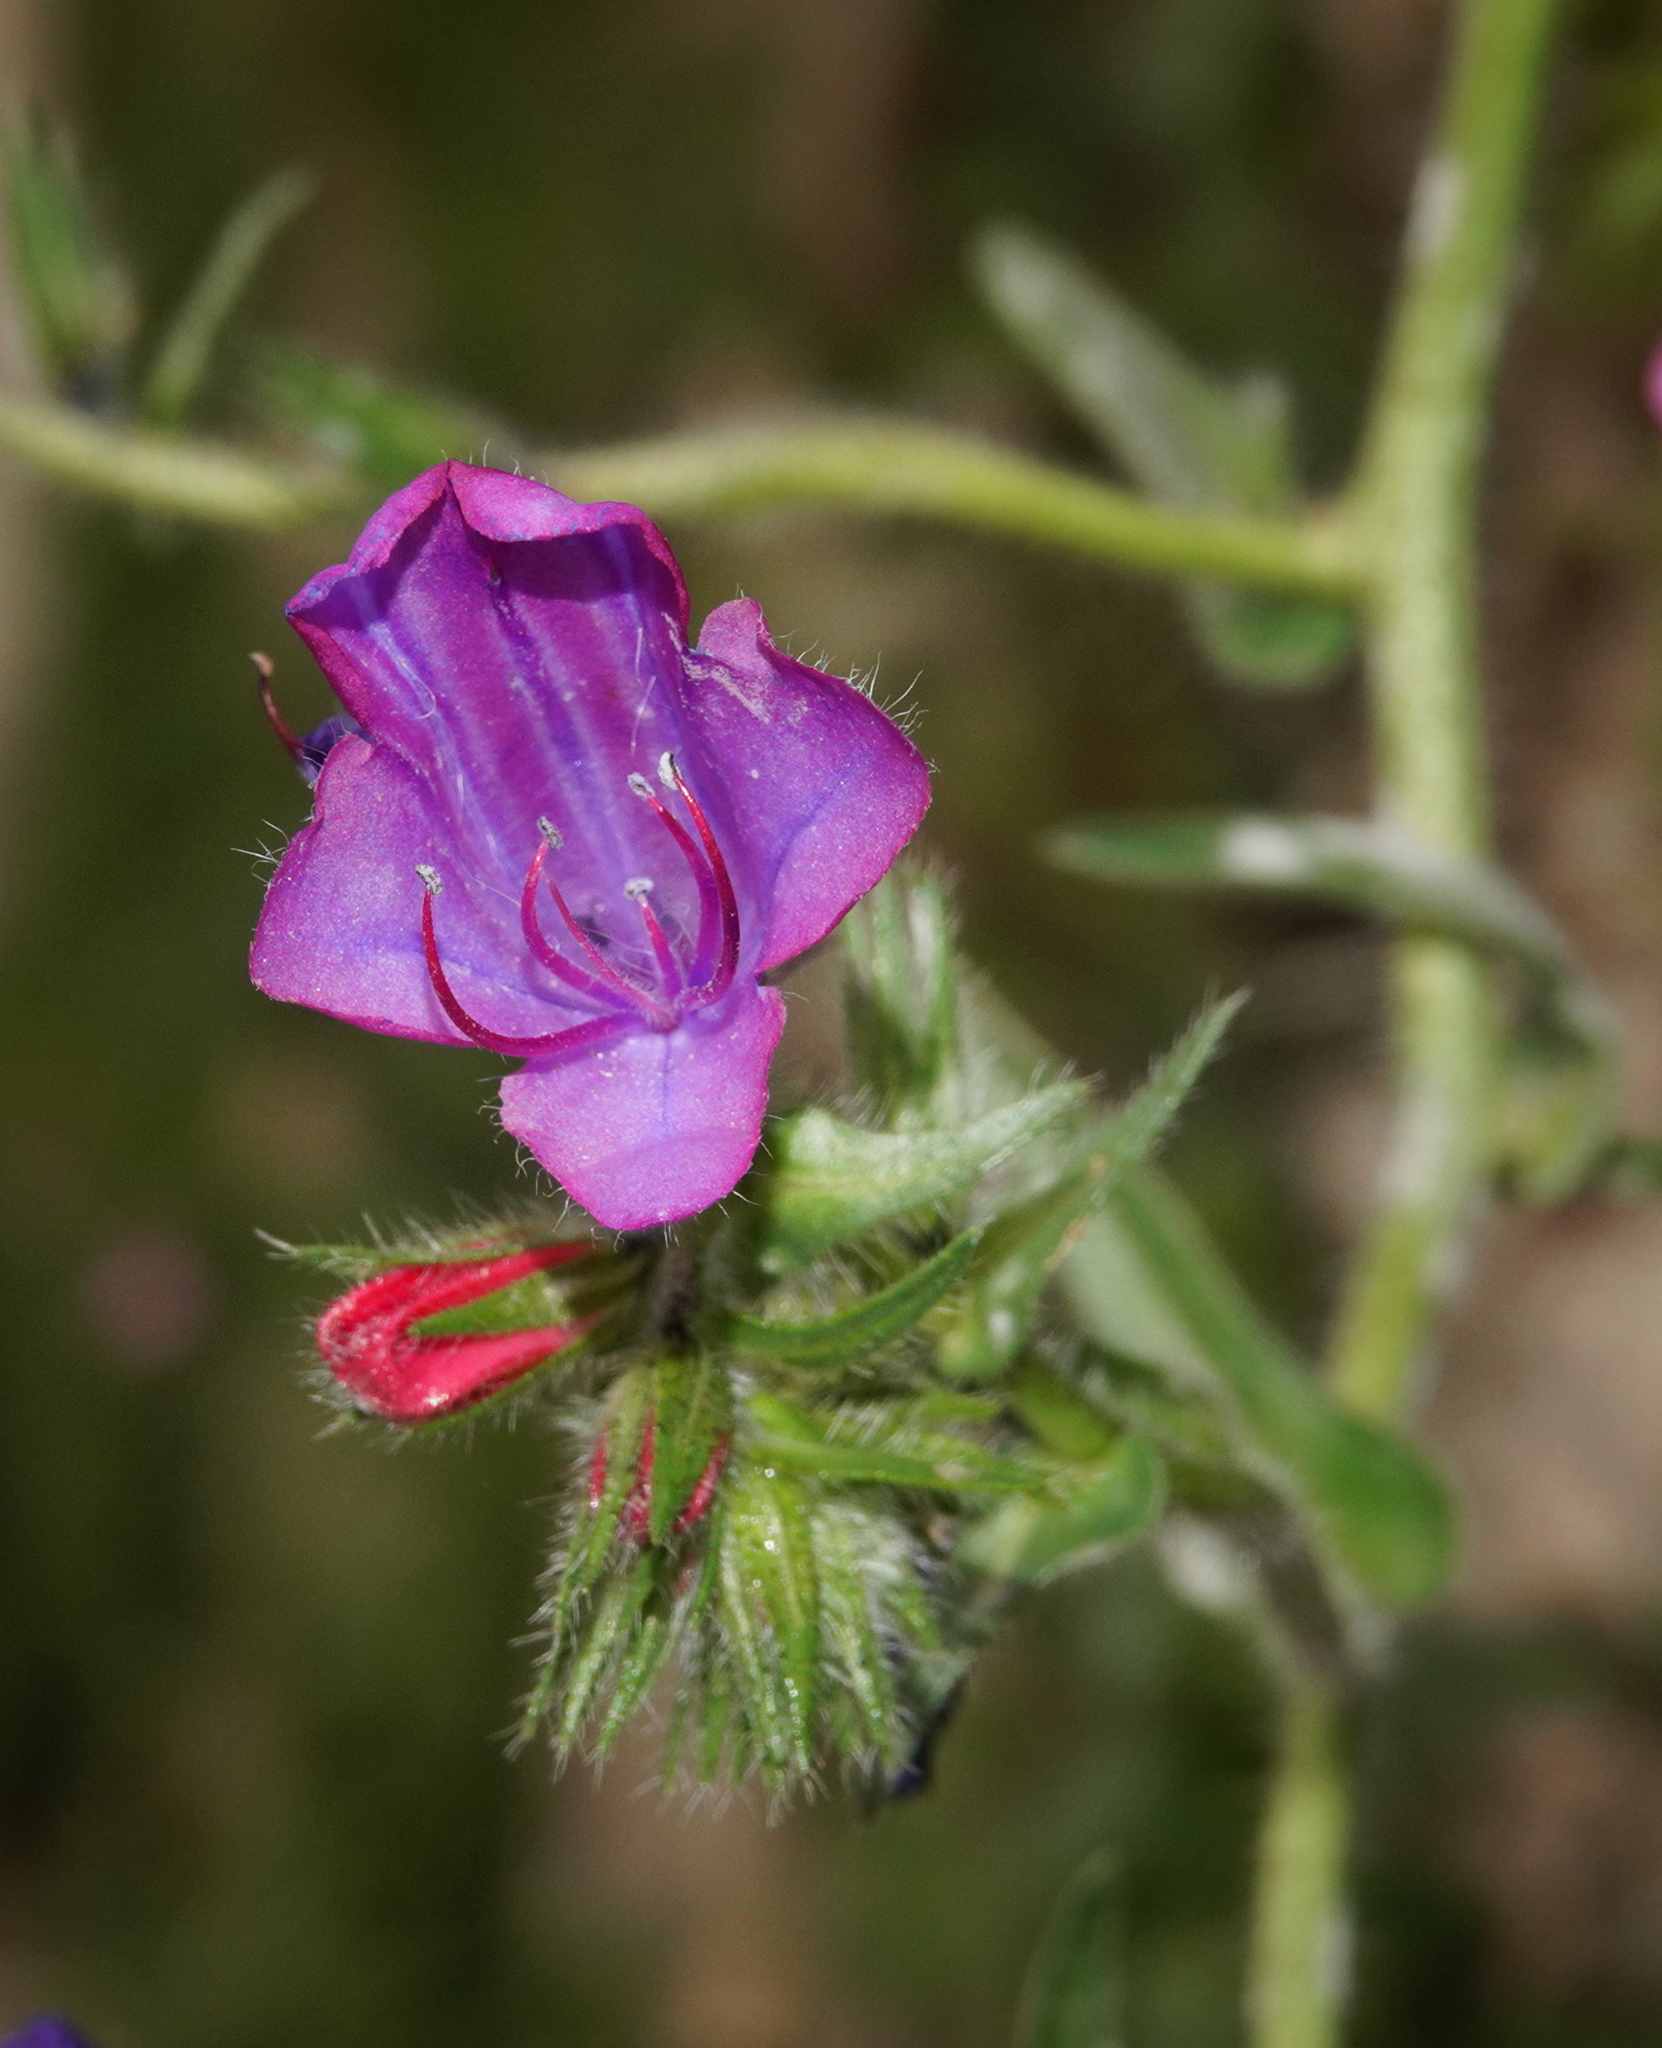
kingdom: Plantae
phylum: Tracheophyta
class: Magnoliopsida
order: Boraginales
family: Boraginaceae
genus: Echium
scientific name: Echium plantagineum
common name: Purple viper's-bugloss
